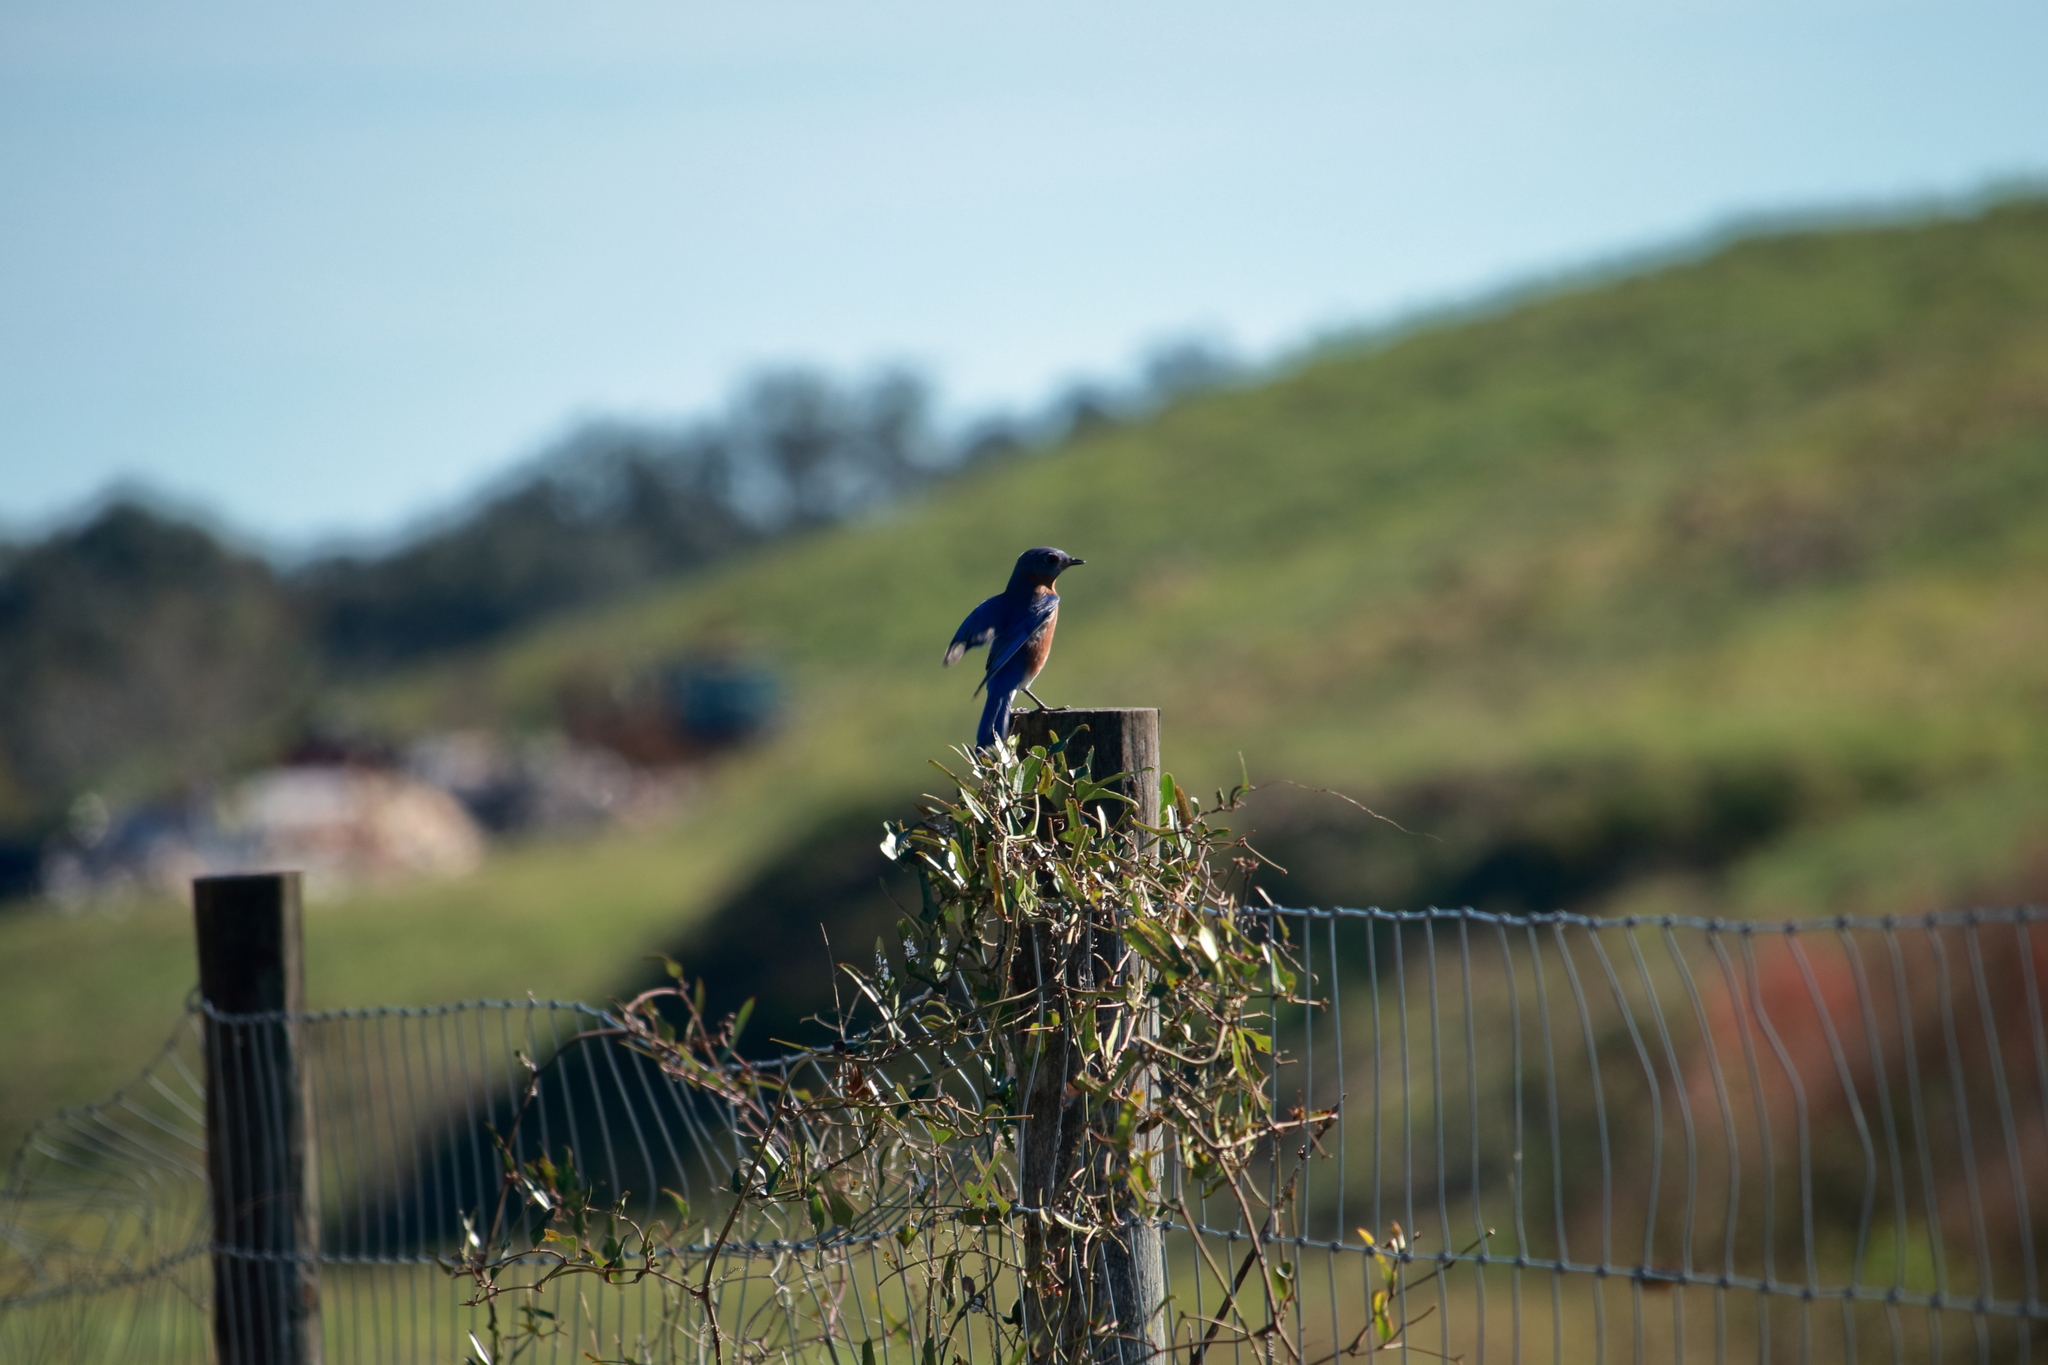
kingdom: Animalia
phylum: Chordata
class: Aves
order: Passeriformes
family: Turdidae
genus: Sialia
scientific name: Sialia sialis
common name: Eastern bluebird
